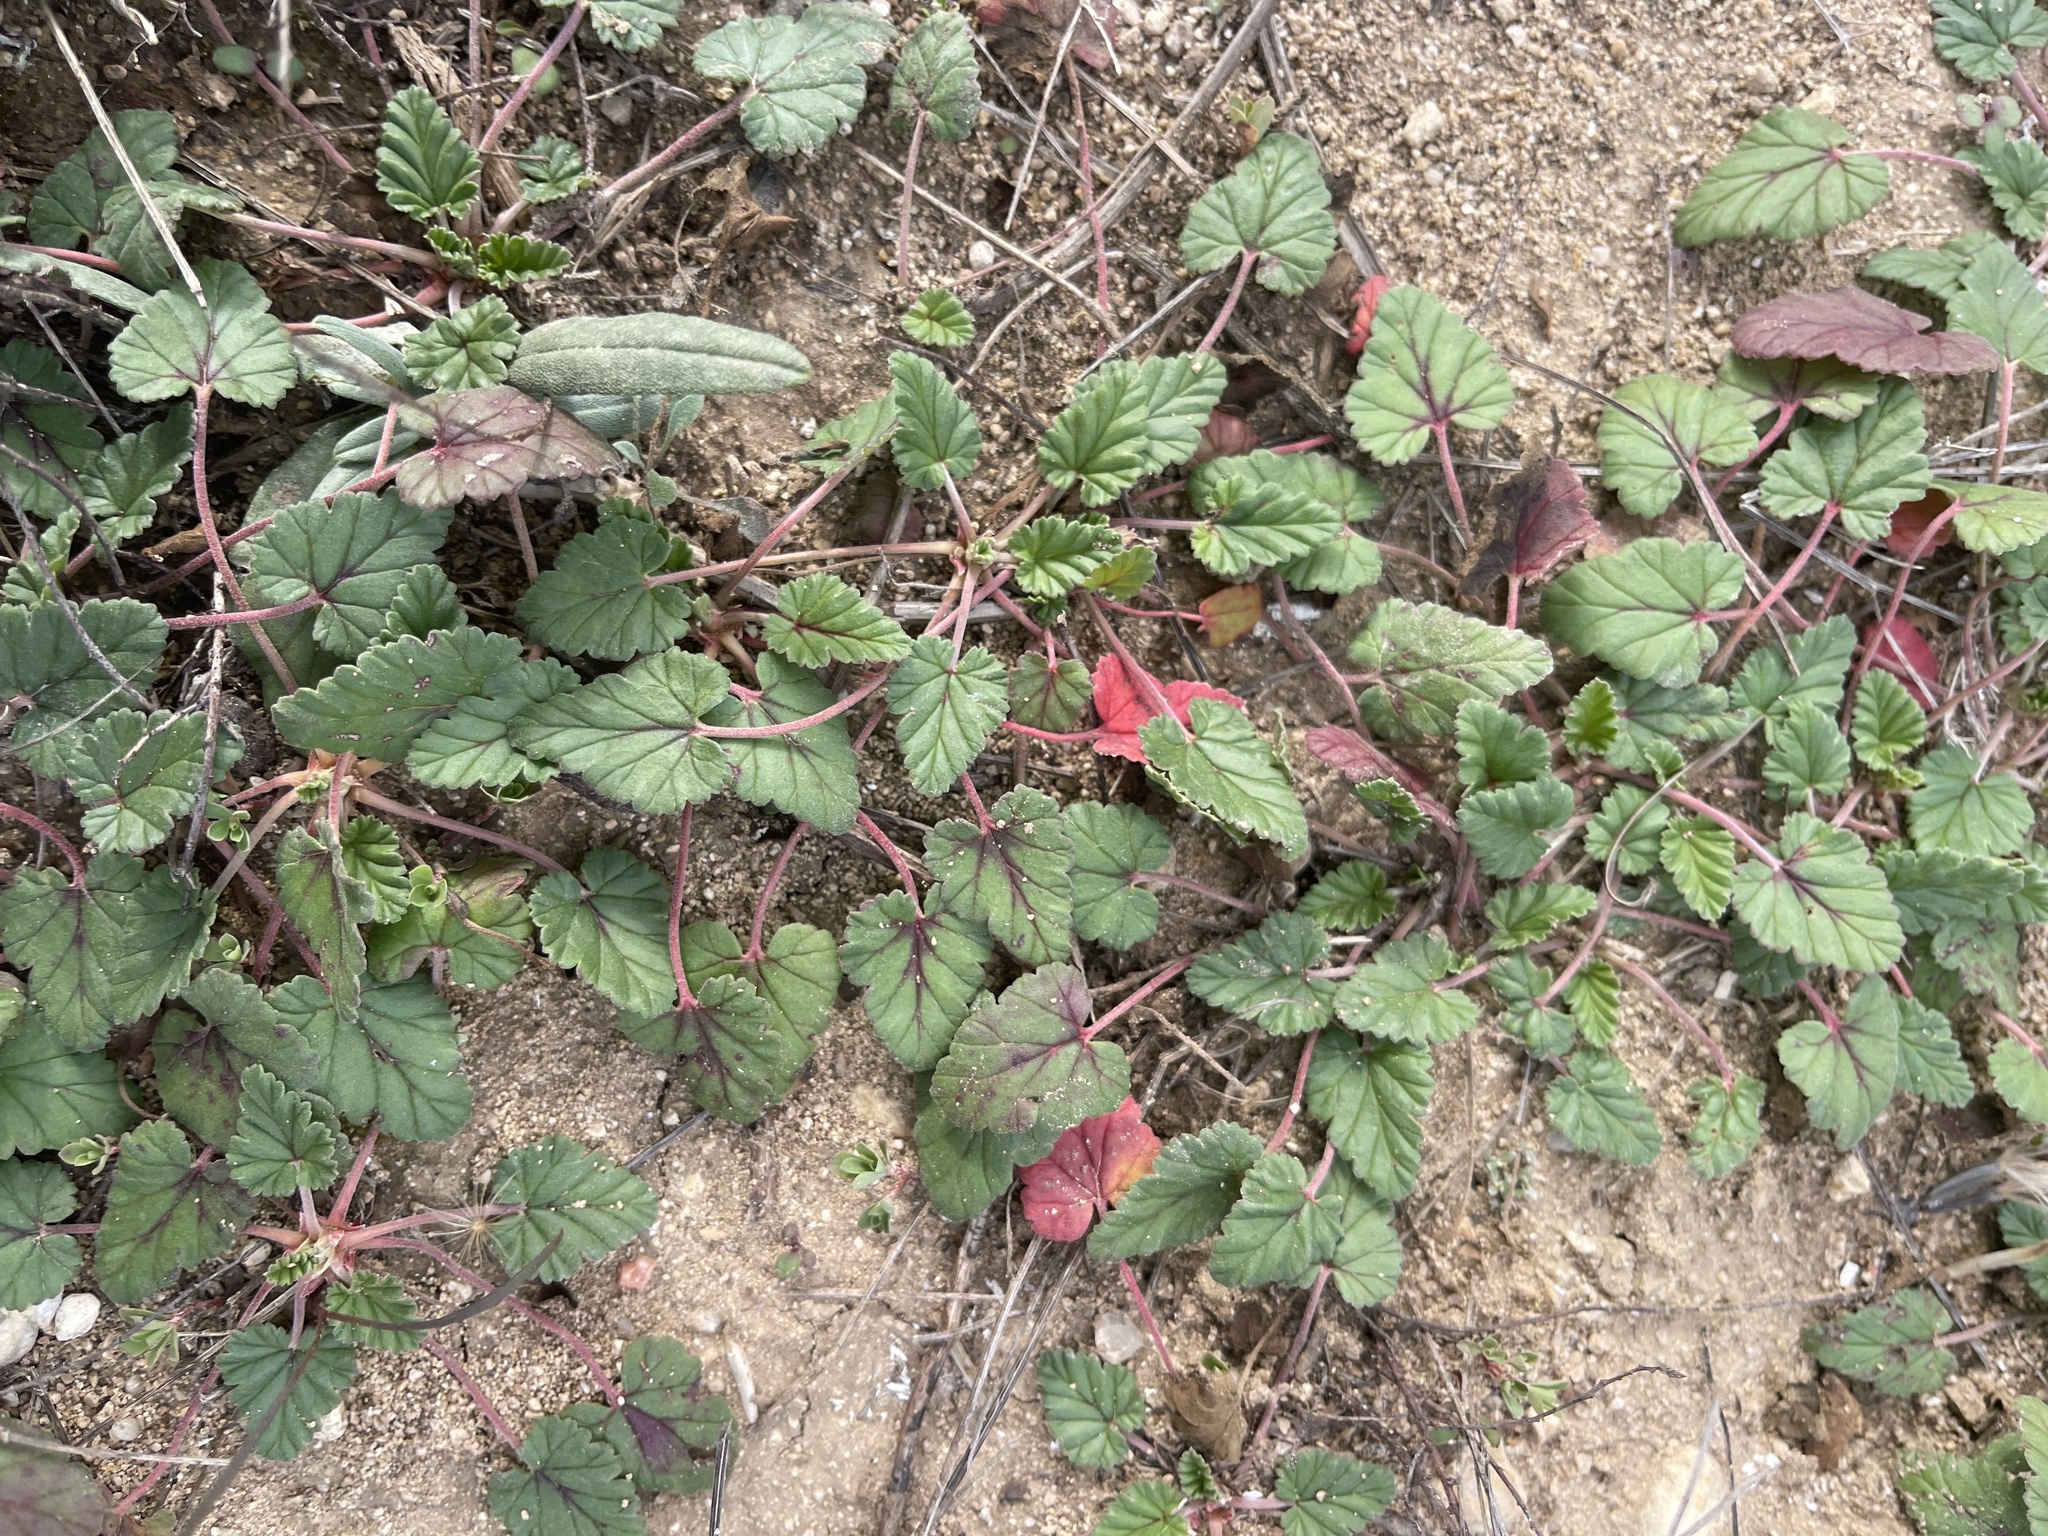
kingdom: Plantae
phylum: Tracheophyta
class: Magnoliopsida
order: Geraniales
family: Geraniaceae
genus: Erodium
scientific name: Erodium texanum
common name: Texas stork's-bill
